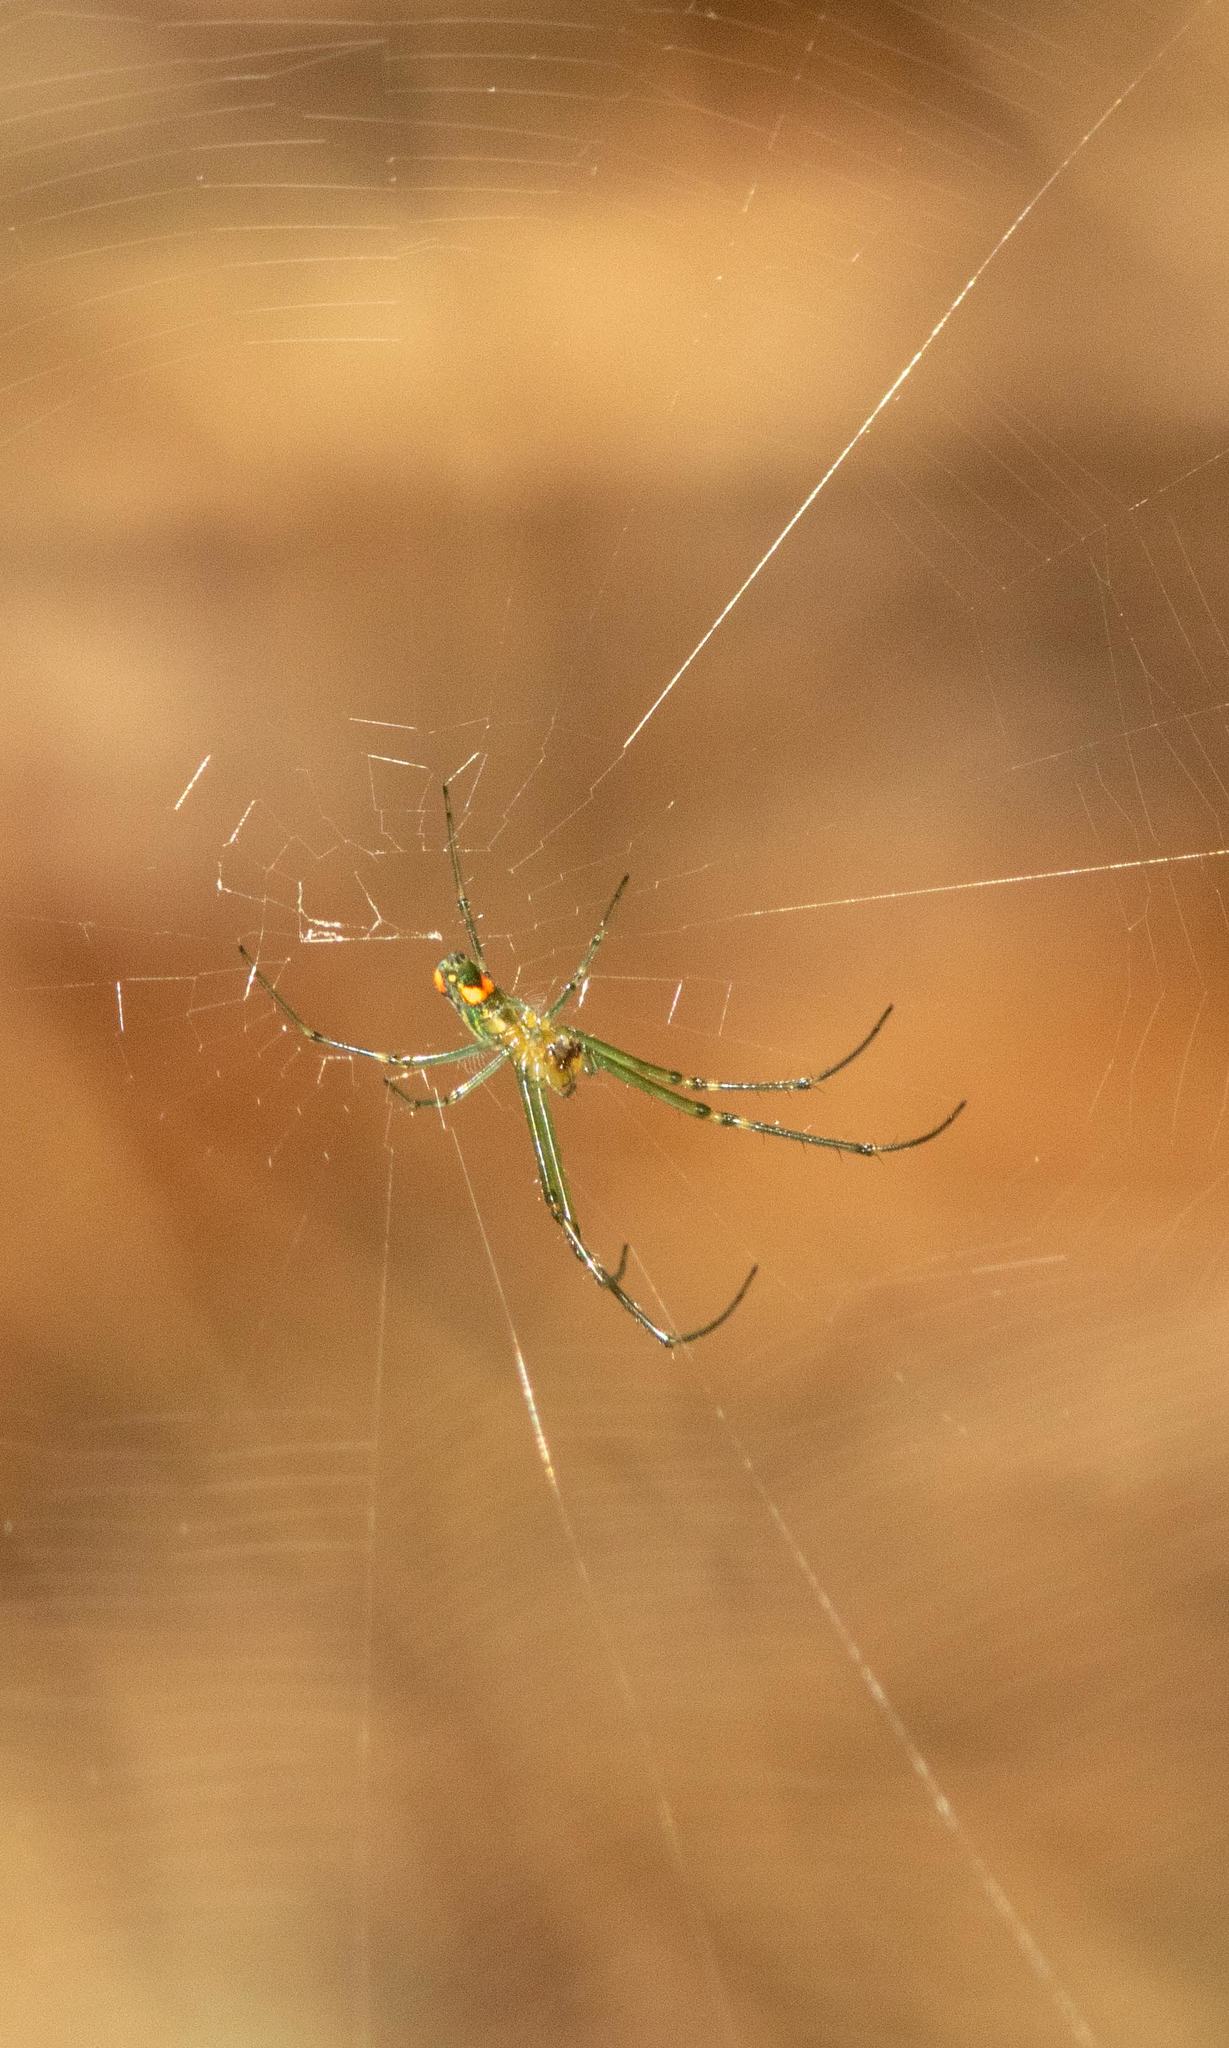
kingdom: Animalia
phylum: Arthropoda
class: Arachnida
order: Araneae
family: Tetragnathidae
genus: Leucauge
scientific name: Leucauge argyrobapta
